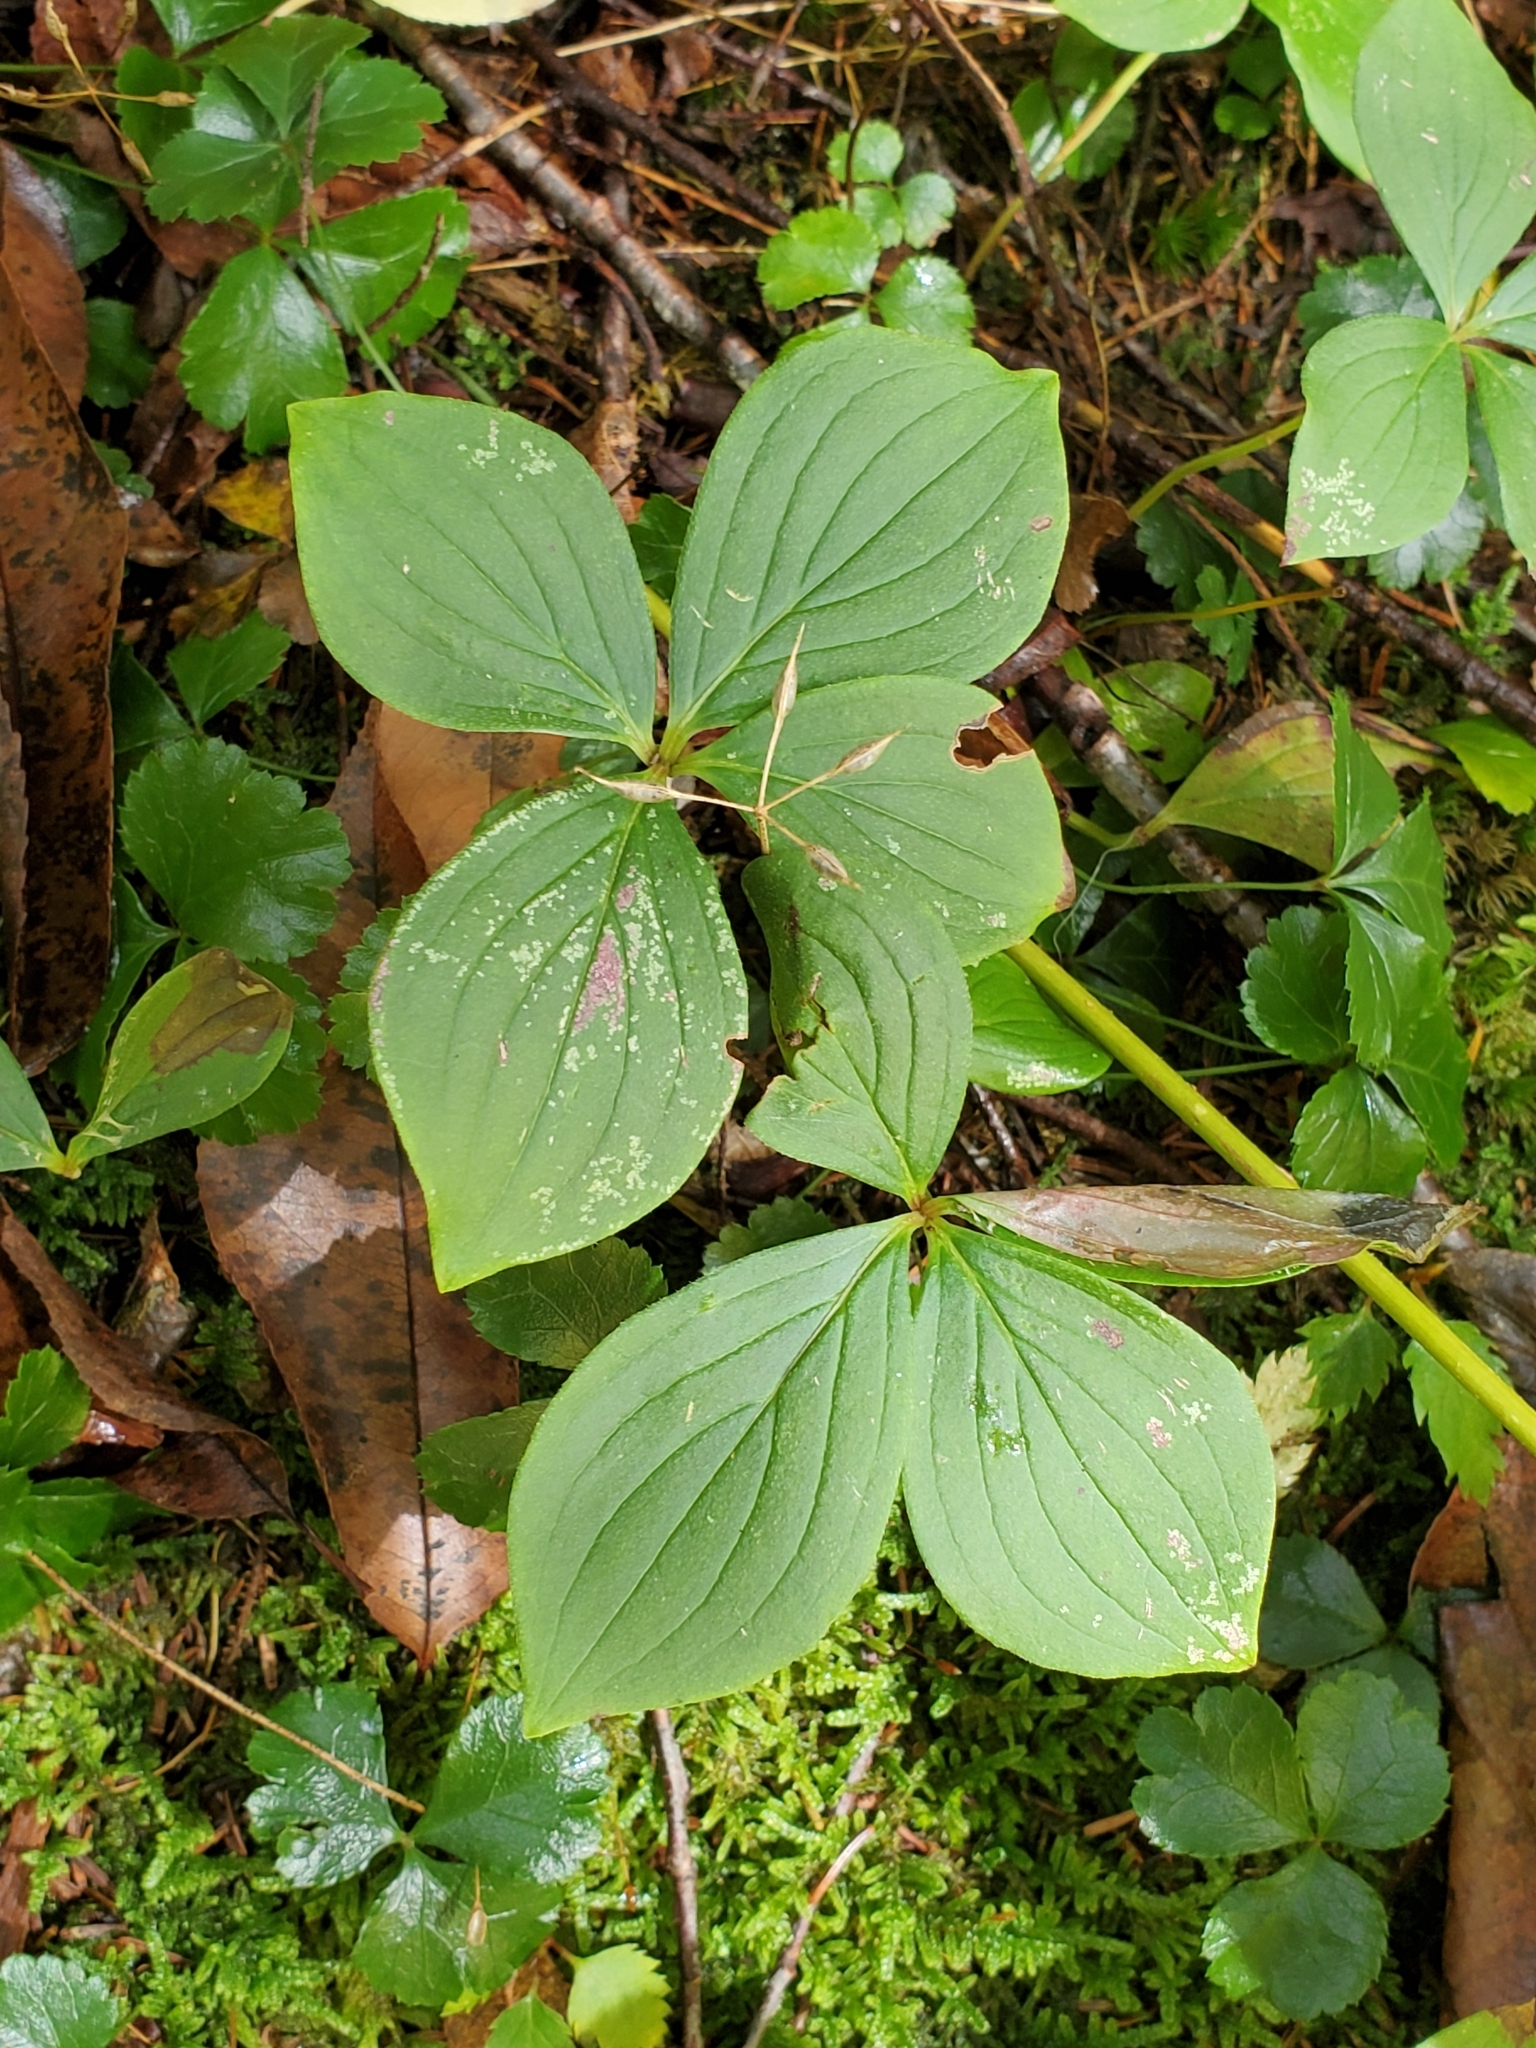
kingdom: Plantae
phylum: Tracheophyta
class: Magnoliopsida
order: Cornales
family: Cornaceae
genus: Cornus
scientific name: Cornus canadensis
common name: Creeping dogwood
